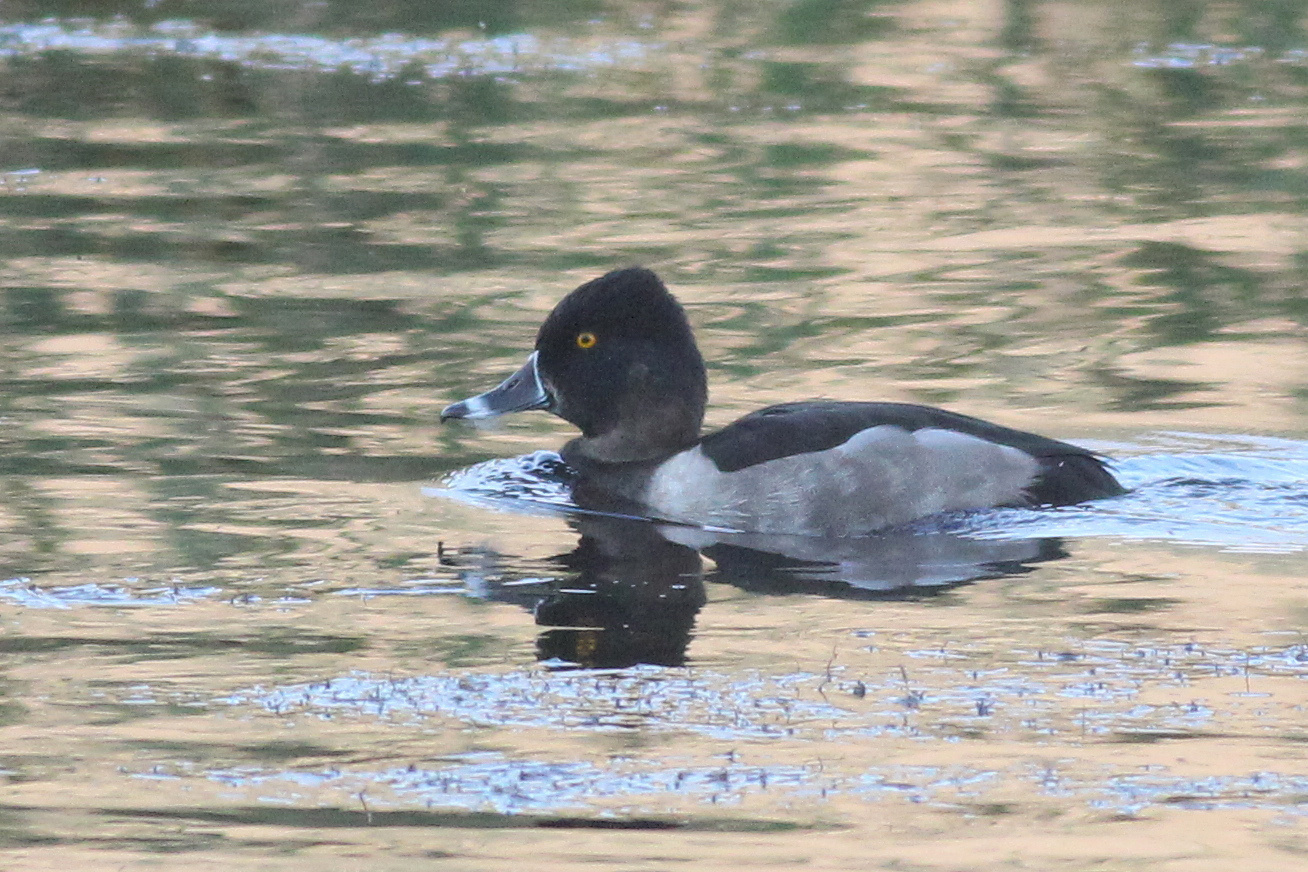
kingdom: Animalia
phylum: Chordata
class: Aves
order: Anseriformes
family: Anatidae
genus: Aythya
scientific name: Aythya collaris
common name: Ring-necked duck
